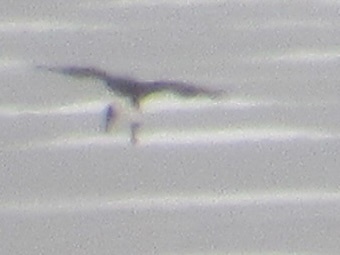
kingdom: Animalia
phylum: Chordata
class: Aves
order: Accipitriformes
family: Accipitridae
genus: Haliaeetus
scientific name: Haliaeetus leucocephalus
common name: Bald eagle
